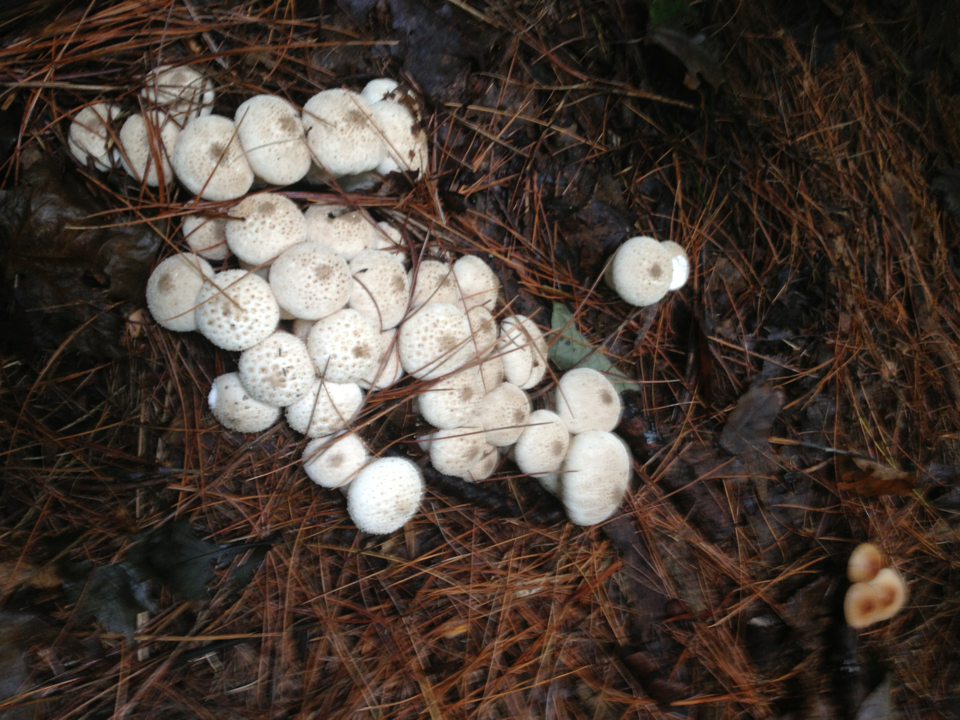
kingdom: Fungi
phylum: Basidiomycota
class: Agaricomycetes
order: Agaricales
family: Lycoperdaceae
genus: Lycoperdon
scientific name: Lycoperdon perlatum
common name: Common puffball
